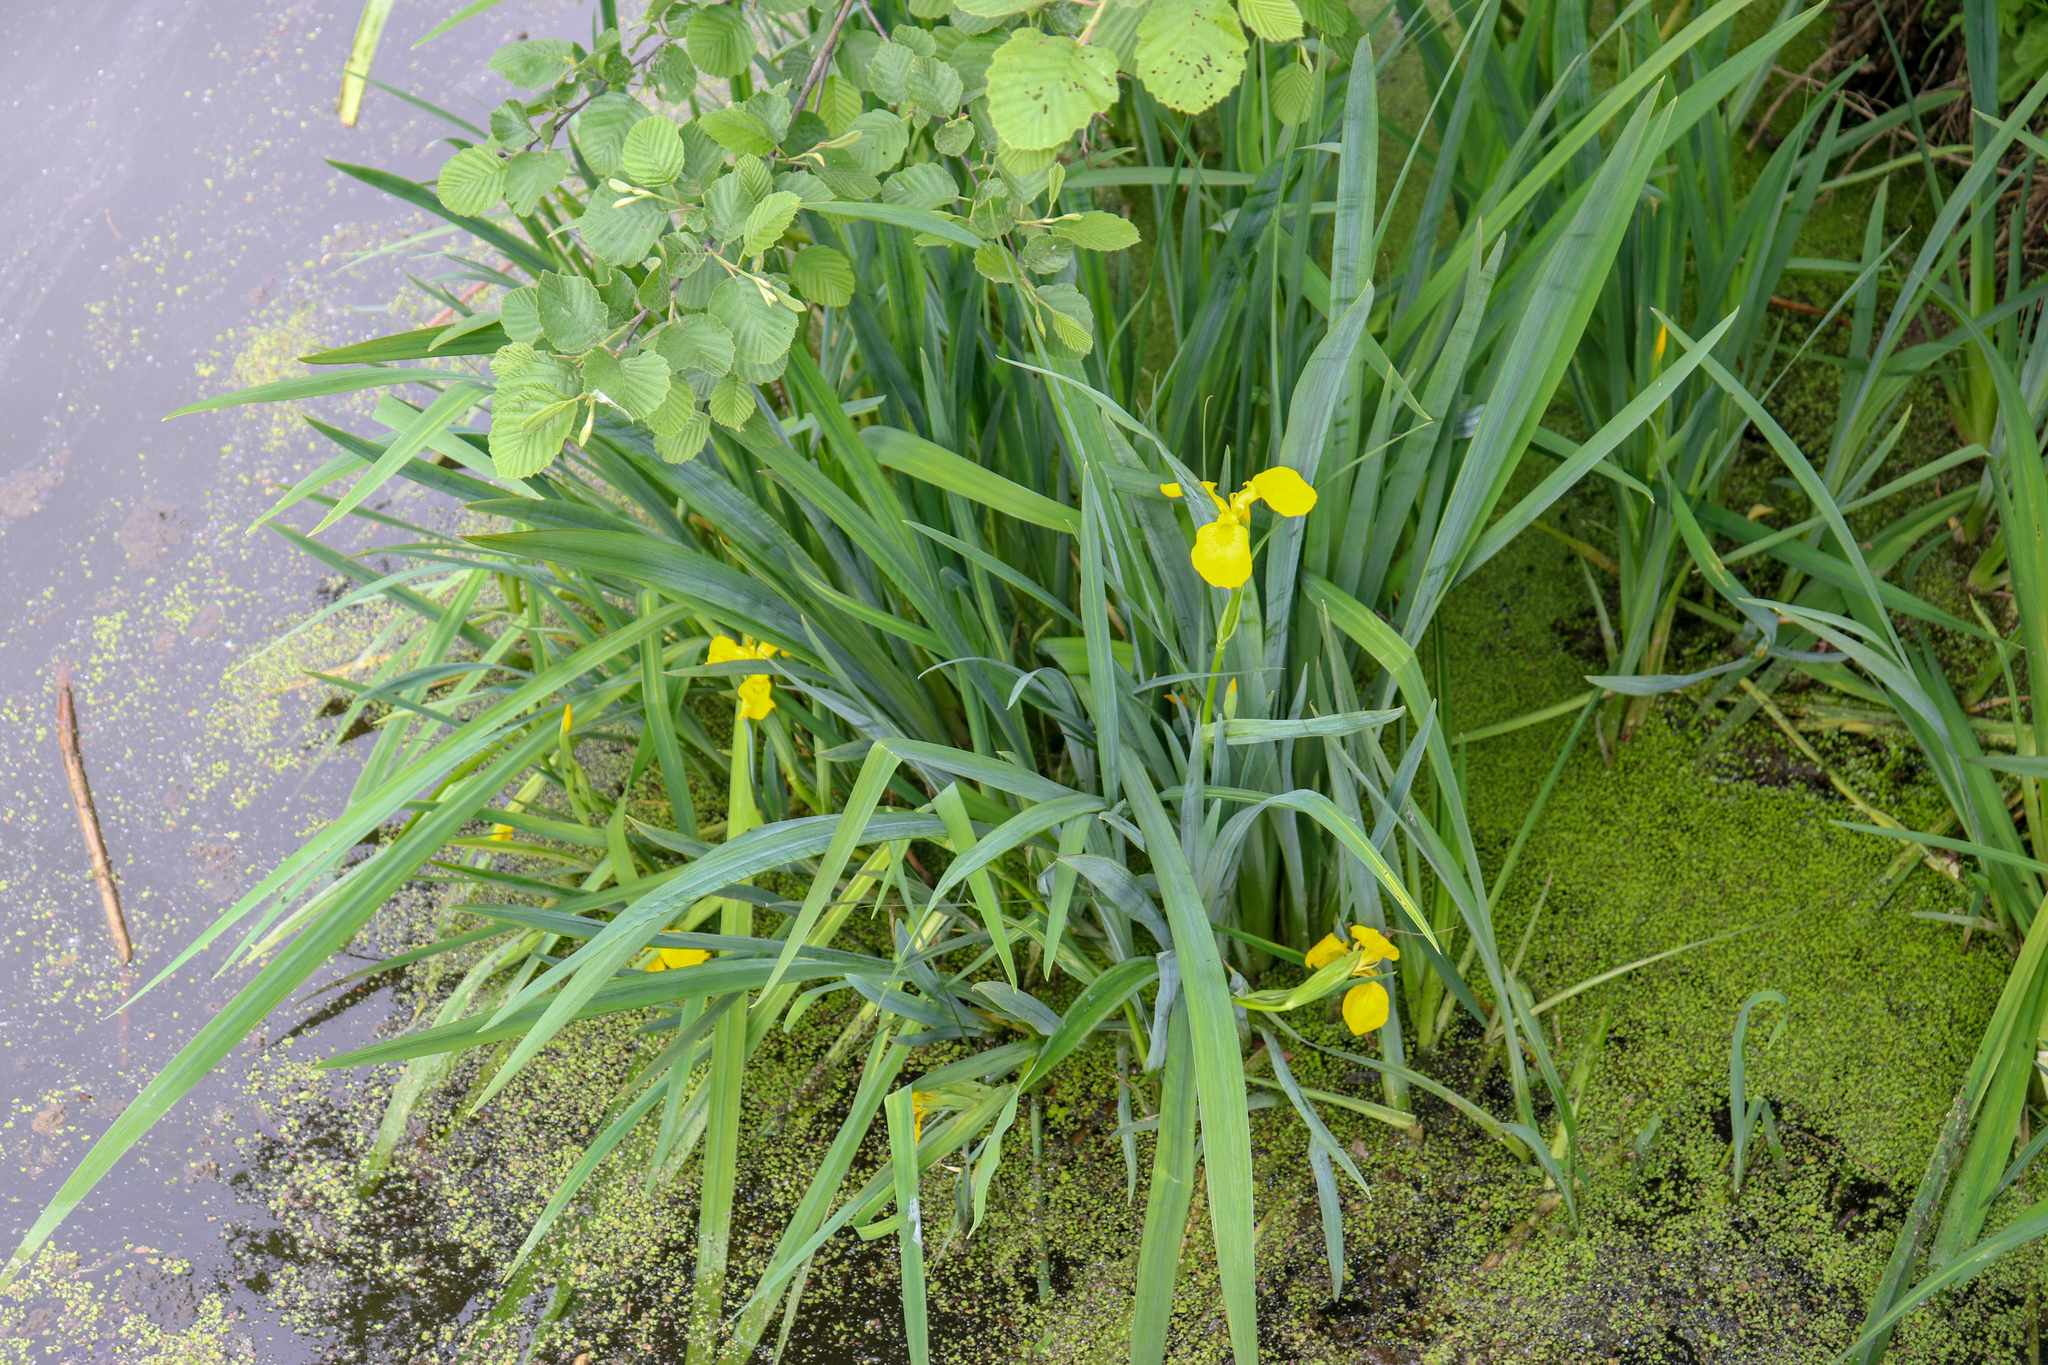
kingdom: Plantae
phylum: Tracheophyta
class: Liliopsida
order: Asparagales
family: Iridaceae
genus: Iris
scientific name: Iris pseudacorus
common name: Yellow flag
